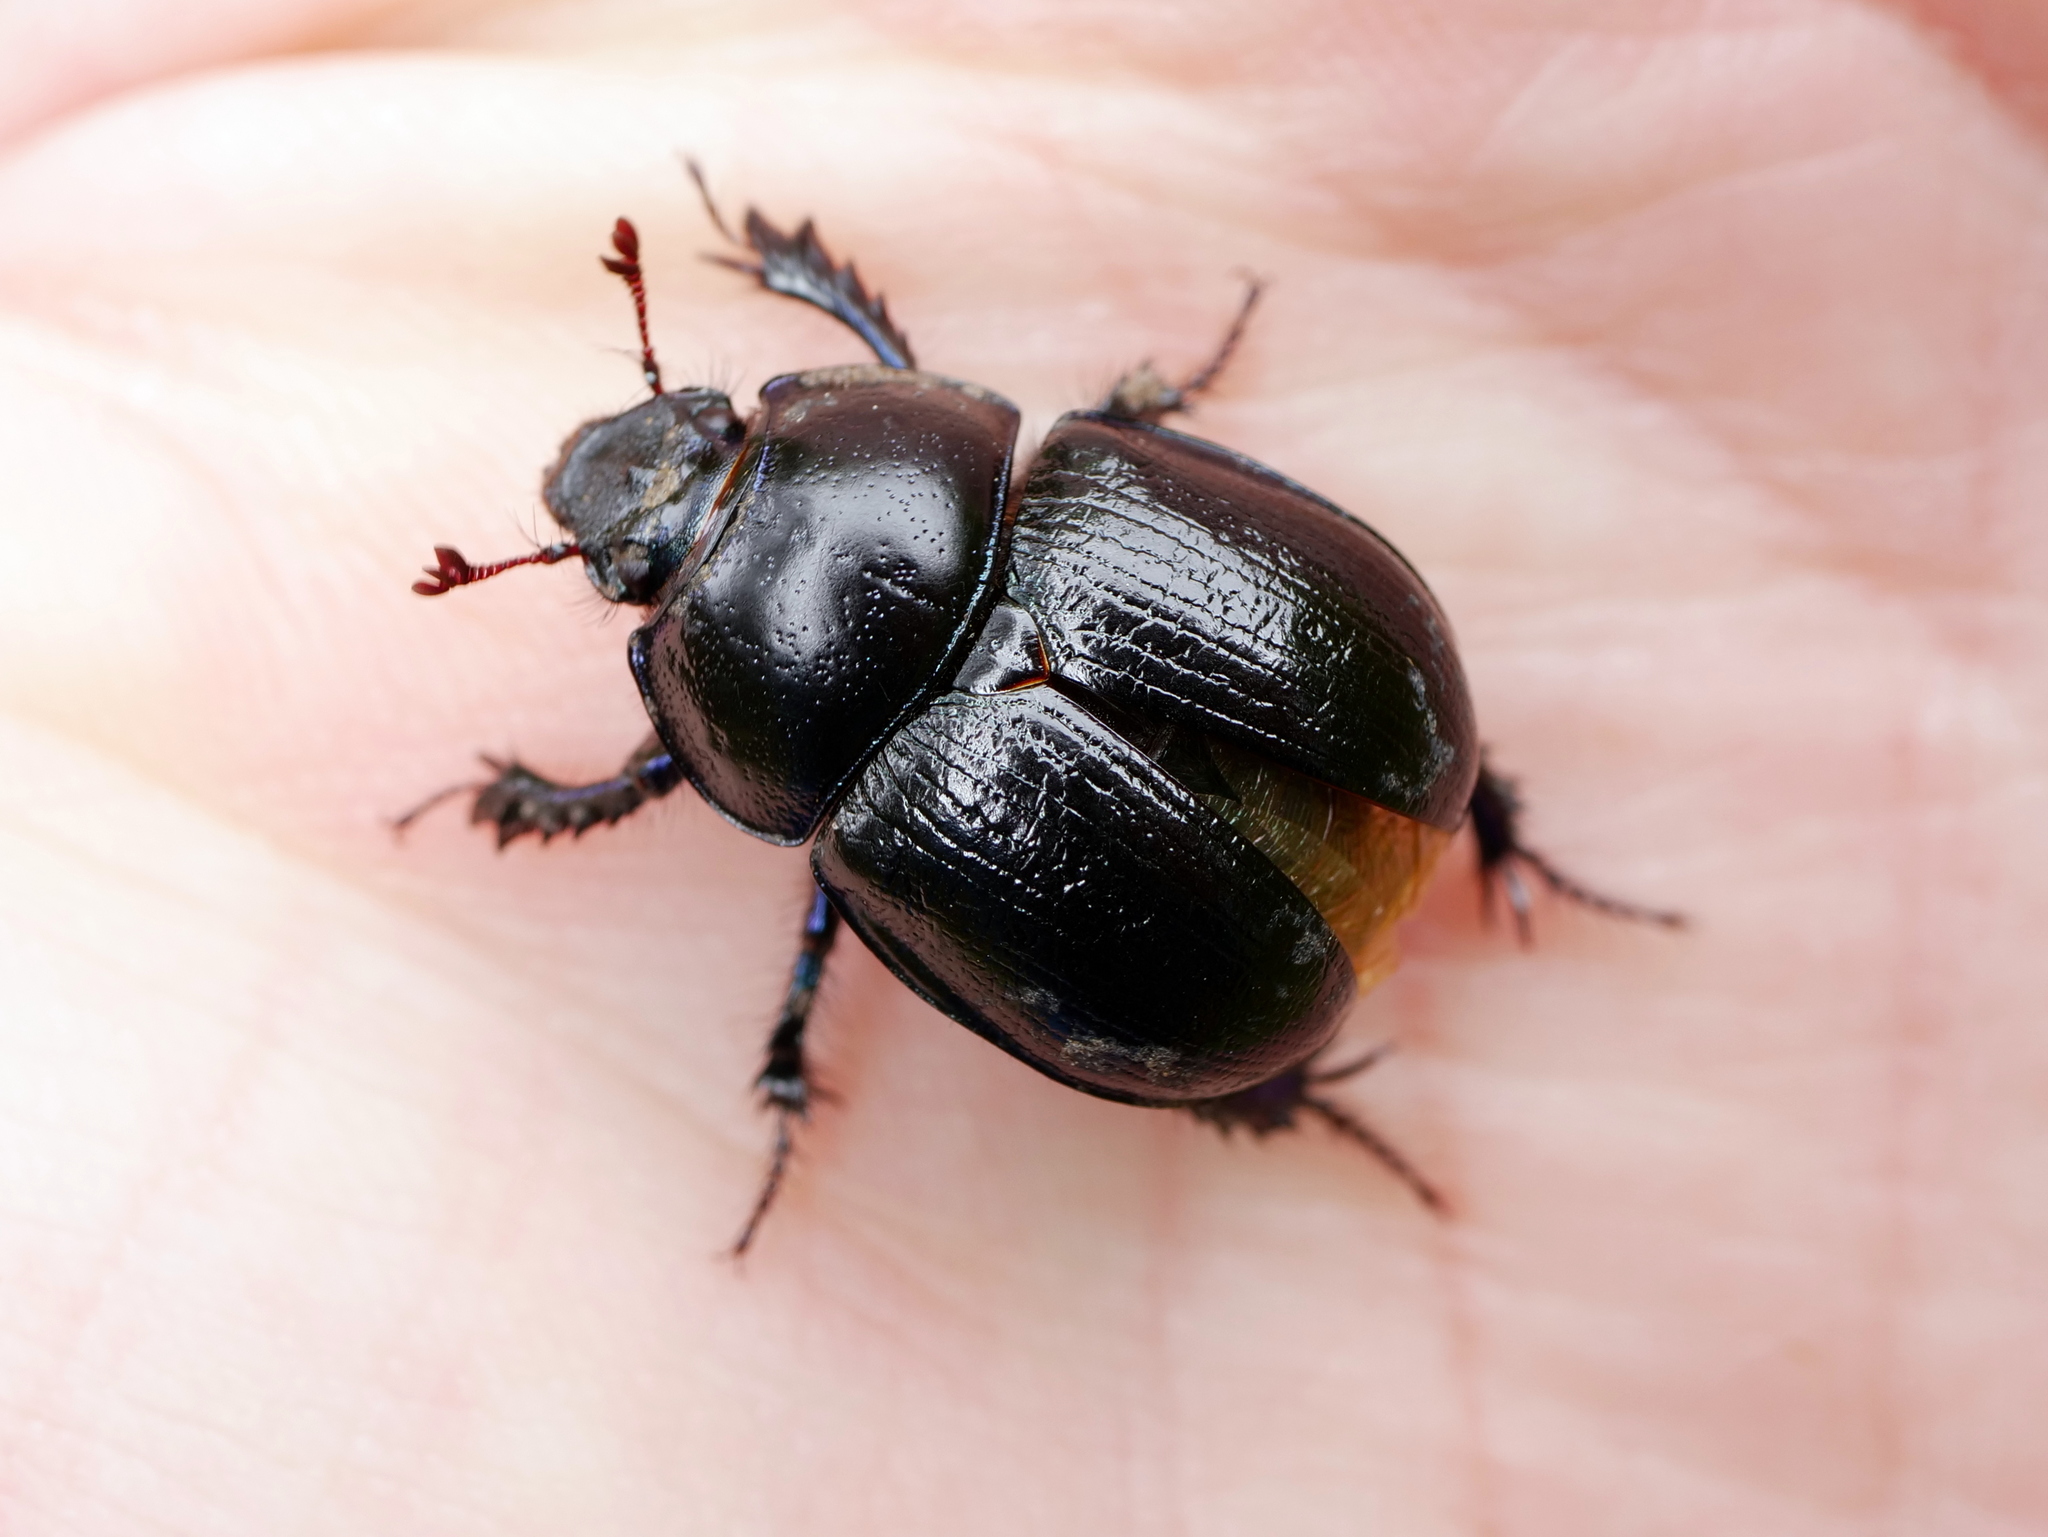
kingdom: Animalia
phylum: Arthropoda
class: Insecta
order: Coleoptera
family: Geotrupidae
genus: Anoplotrupes
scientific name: Anoplotrupes stercorosus
